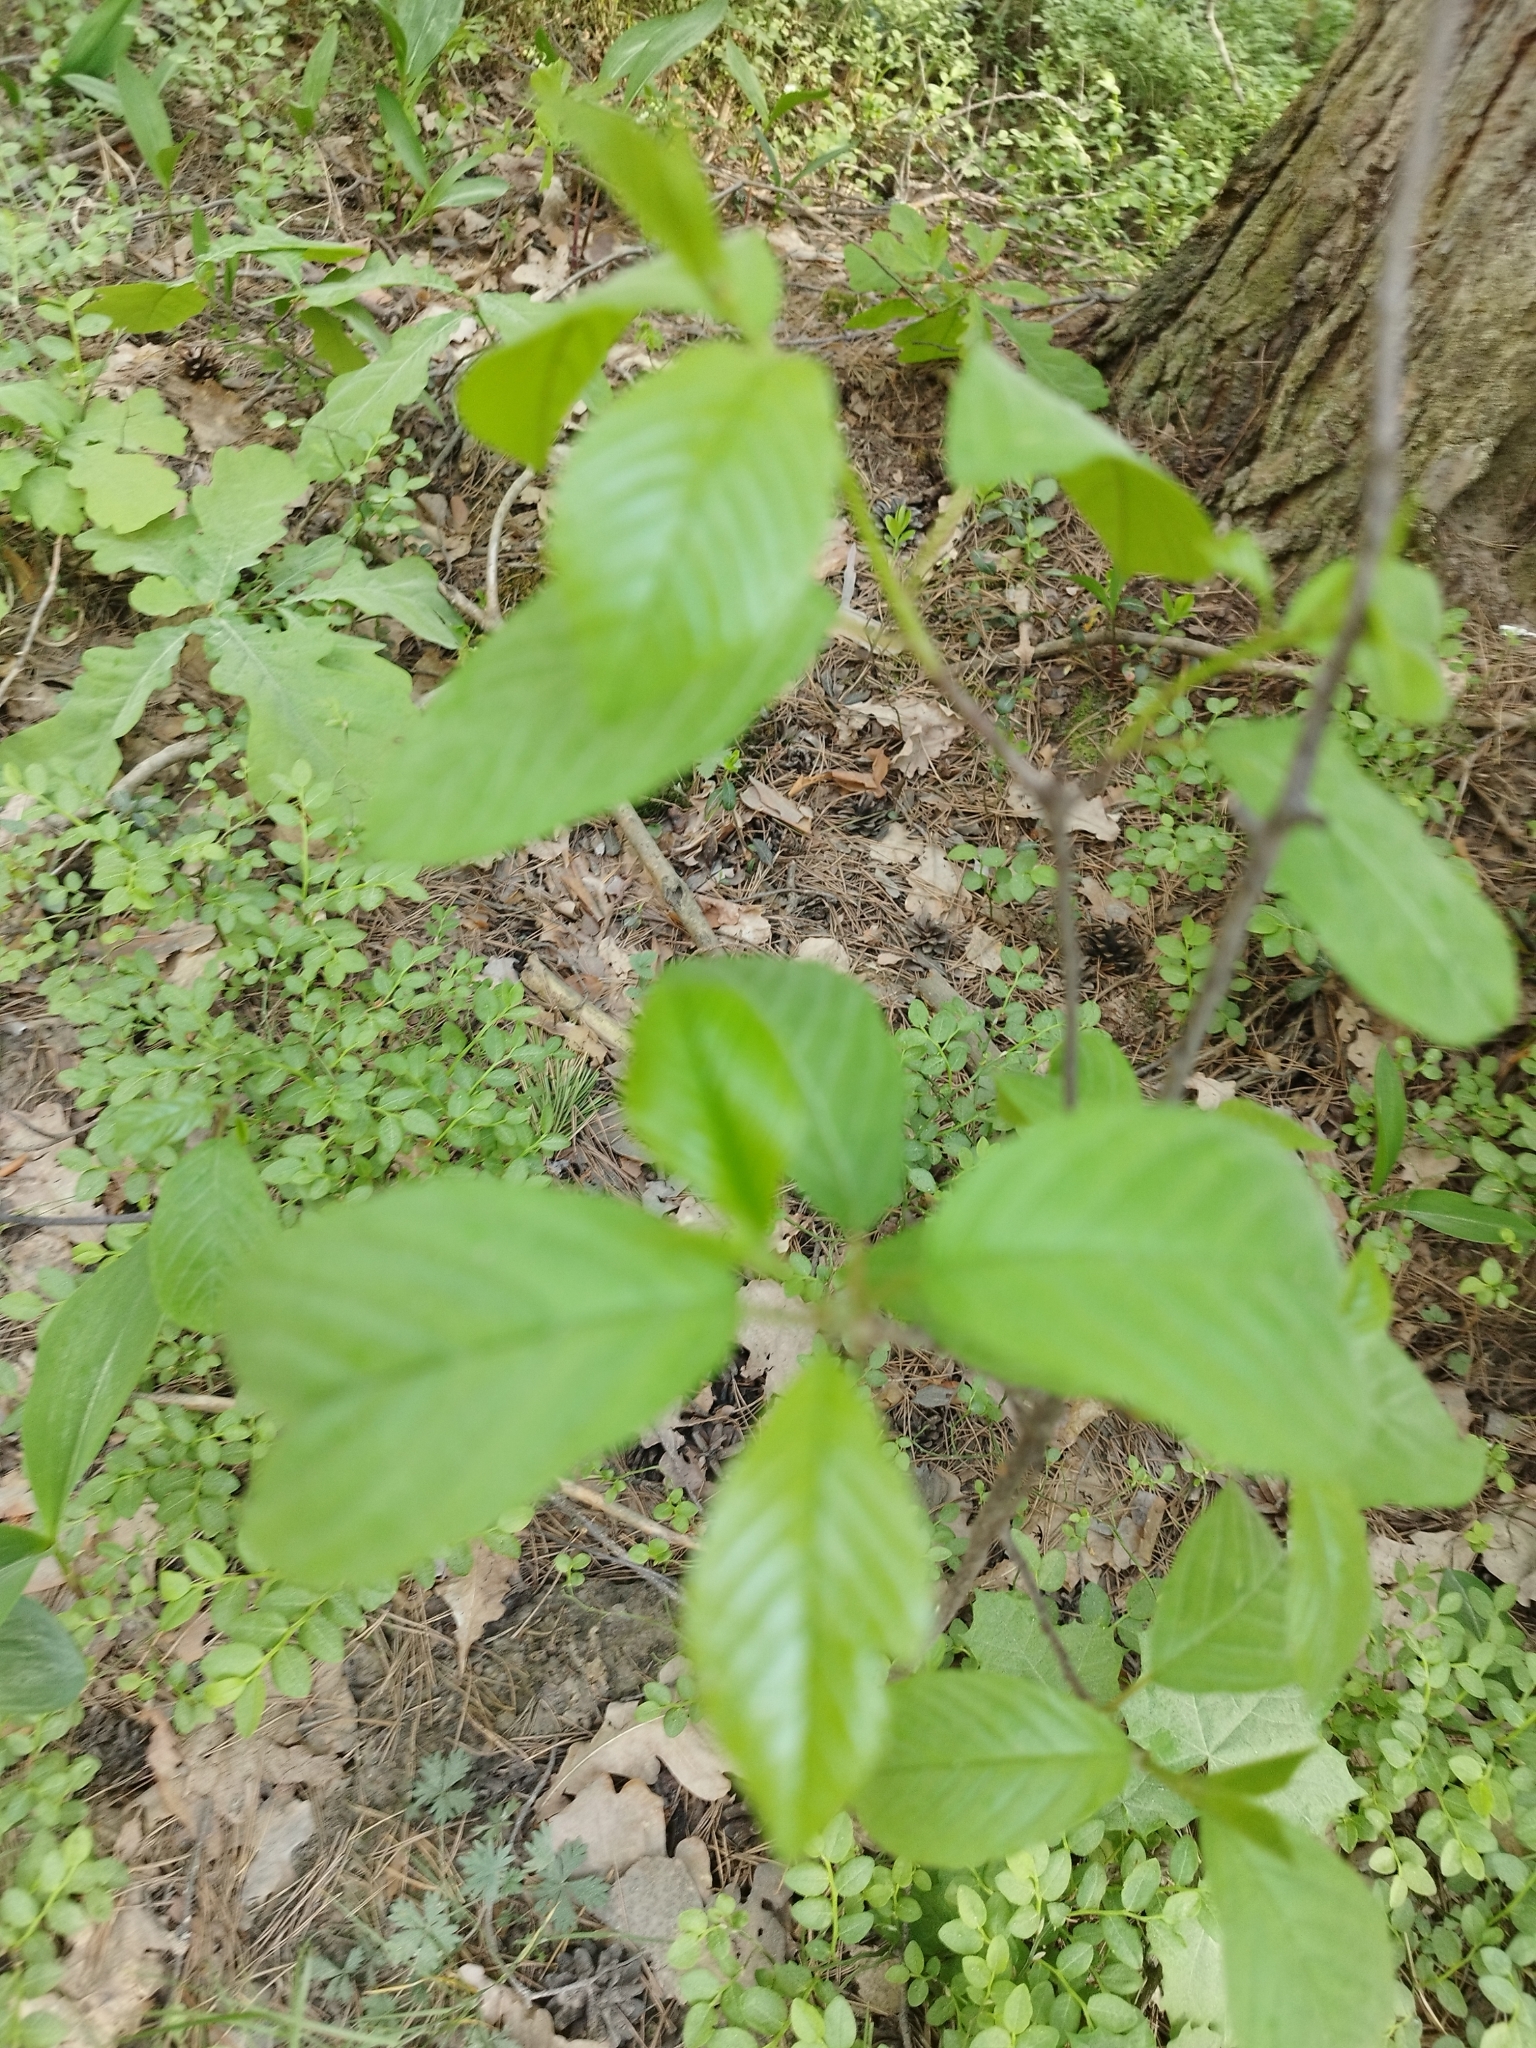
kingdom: Plantae
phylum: Tracheophyta
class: Magnoliopsida
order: Rosales
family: Rhamnaceae
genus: Frangula
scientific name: Frangula alnus
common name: Alder buckthorn
